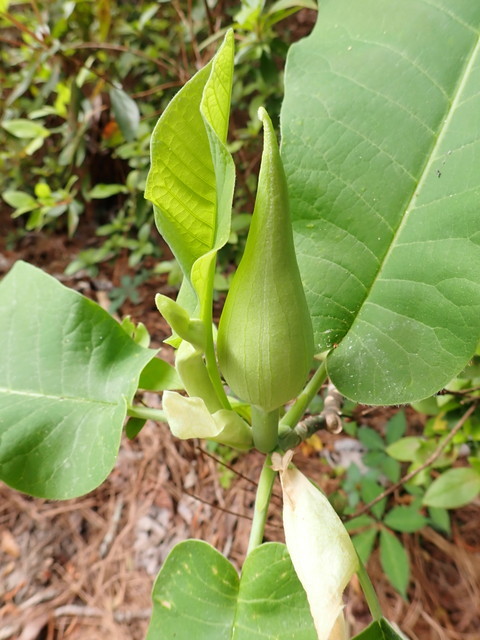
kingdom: Plantae
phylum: Tracheophyta
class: Magnoliopsida
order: Magnoliales
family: Magnoliaceae
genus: Magnolia
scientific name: Magnolia ashei
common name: Ashe's magnolia
